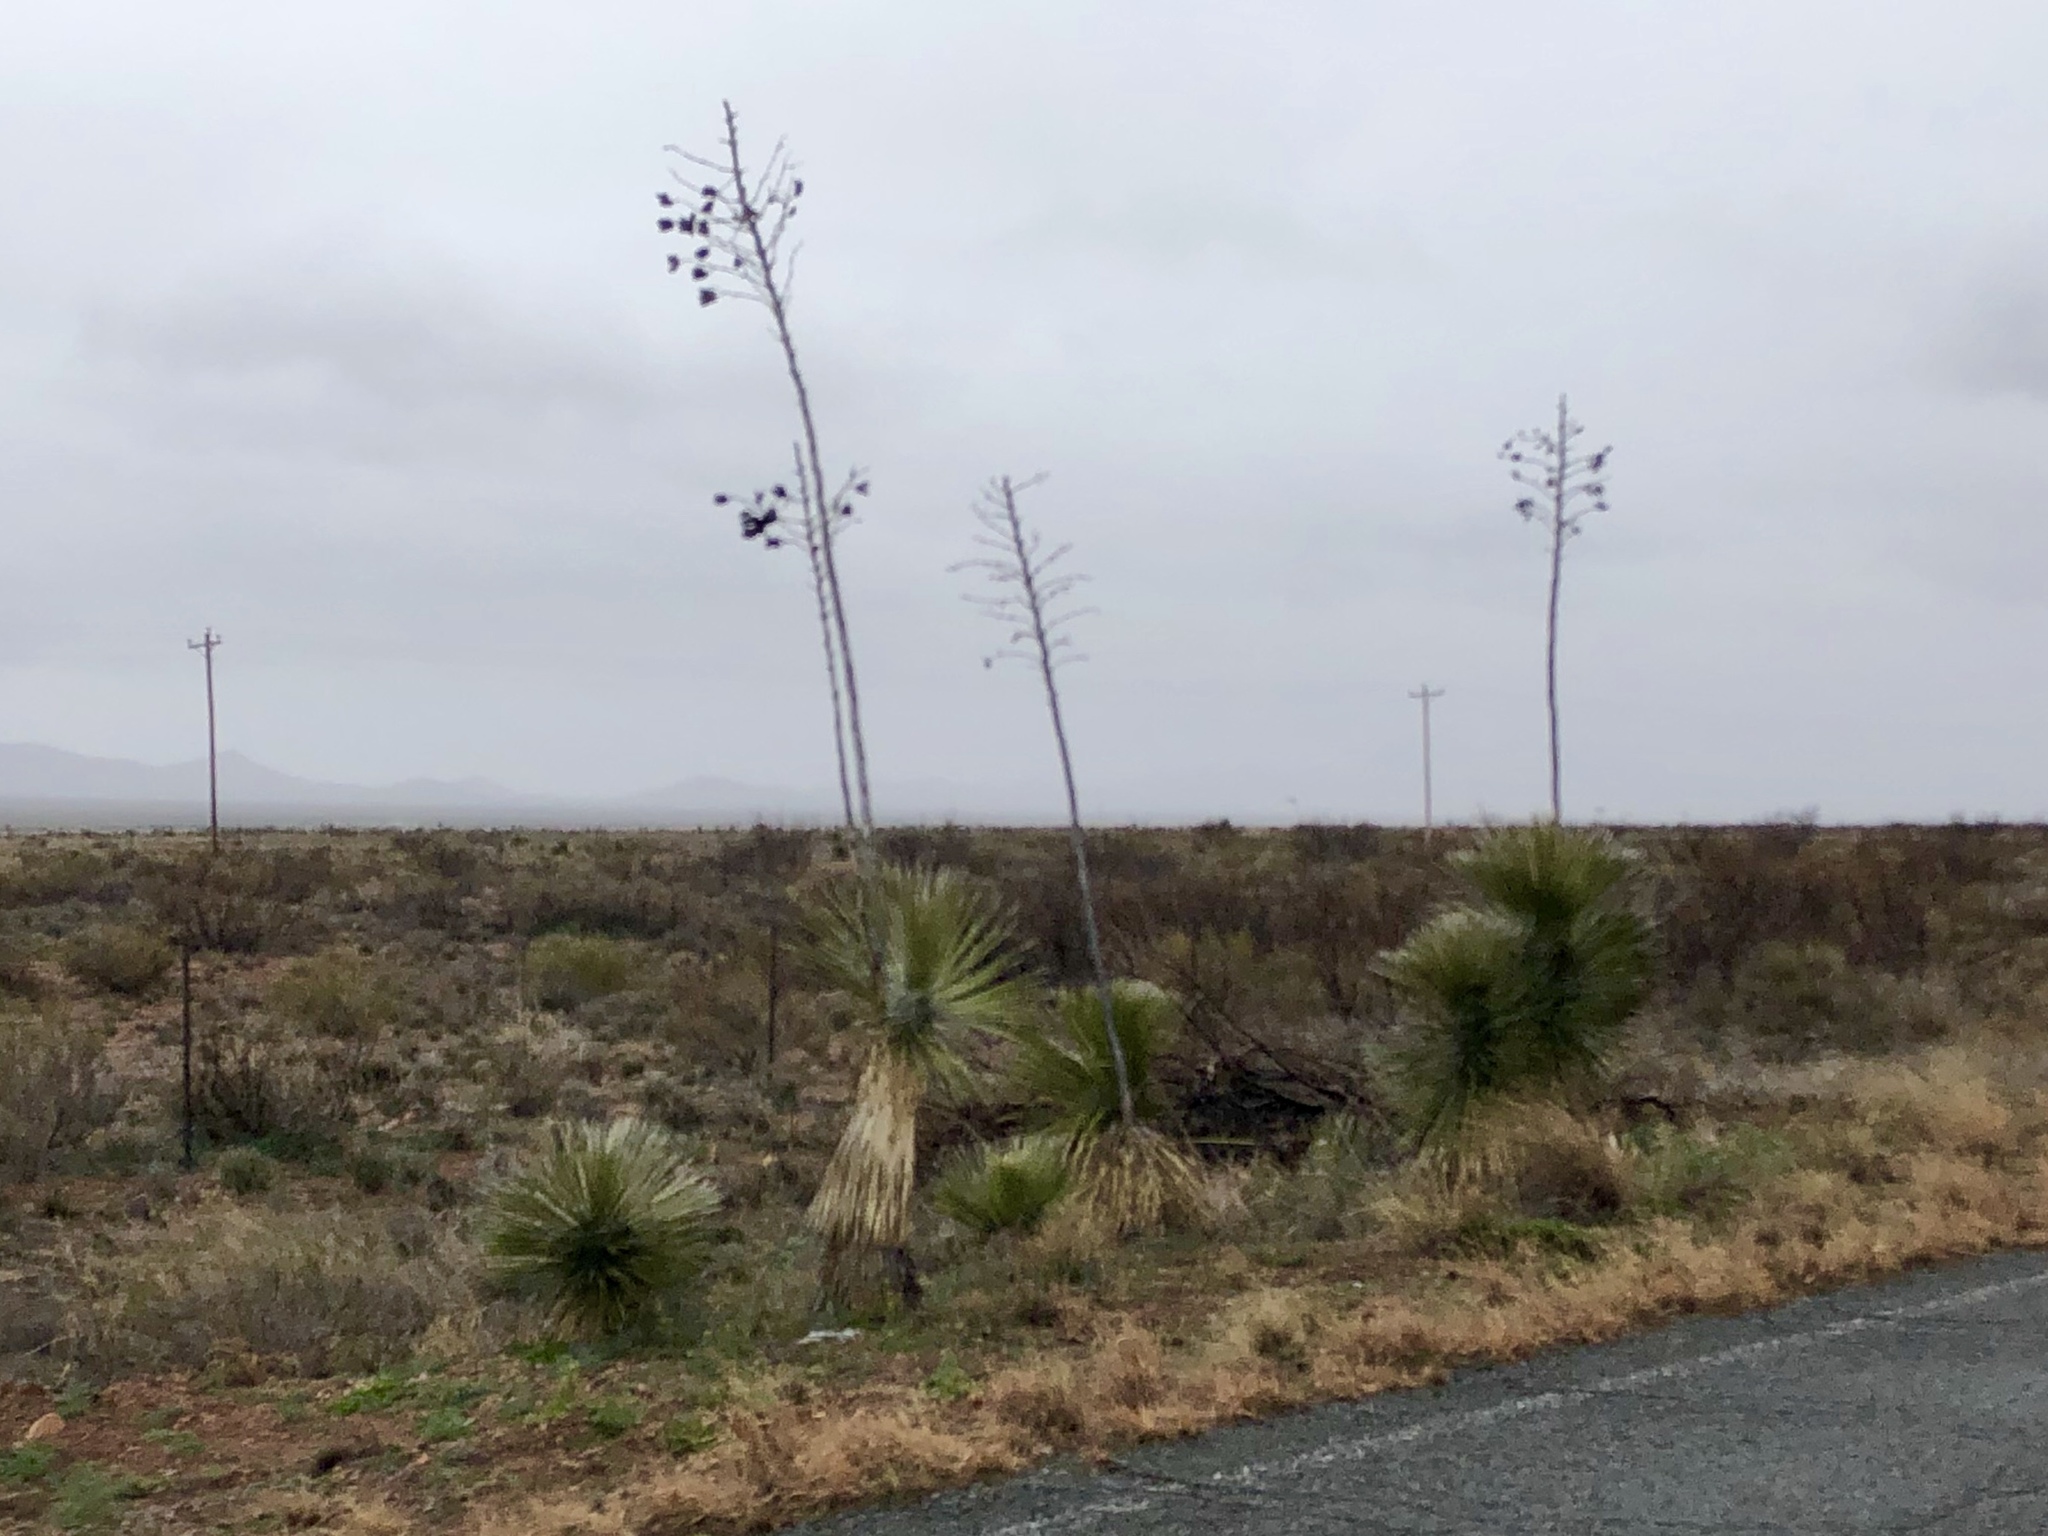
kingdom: Plantae
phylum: Tracheophyta
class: Liliopsida
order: Asparagales
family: Asparagaceae
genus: Yucca
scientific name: Yucca elata
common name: Palmella
